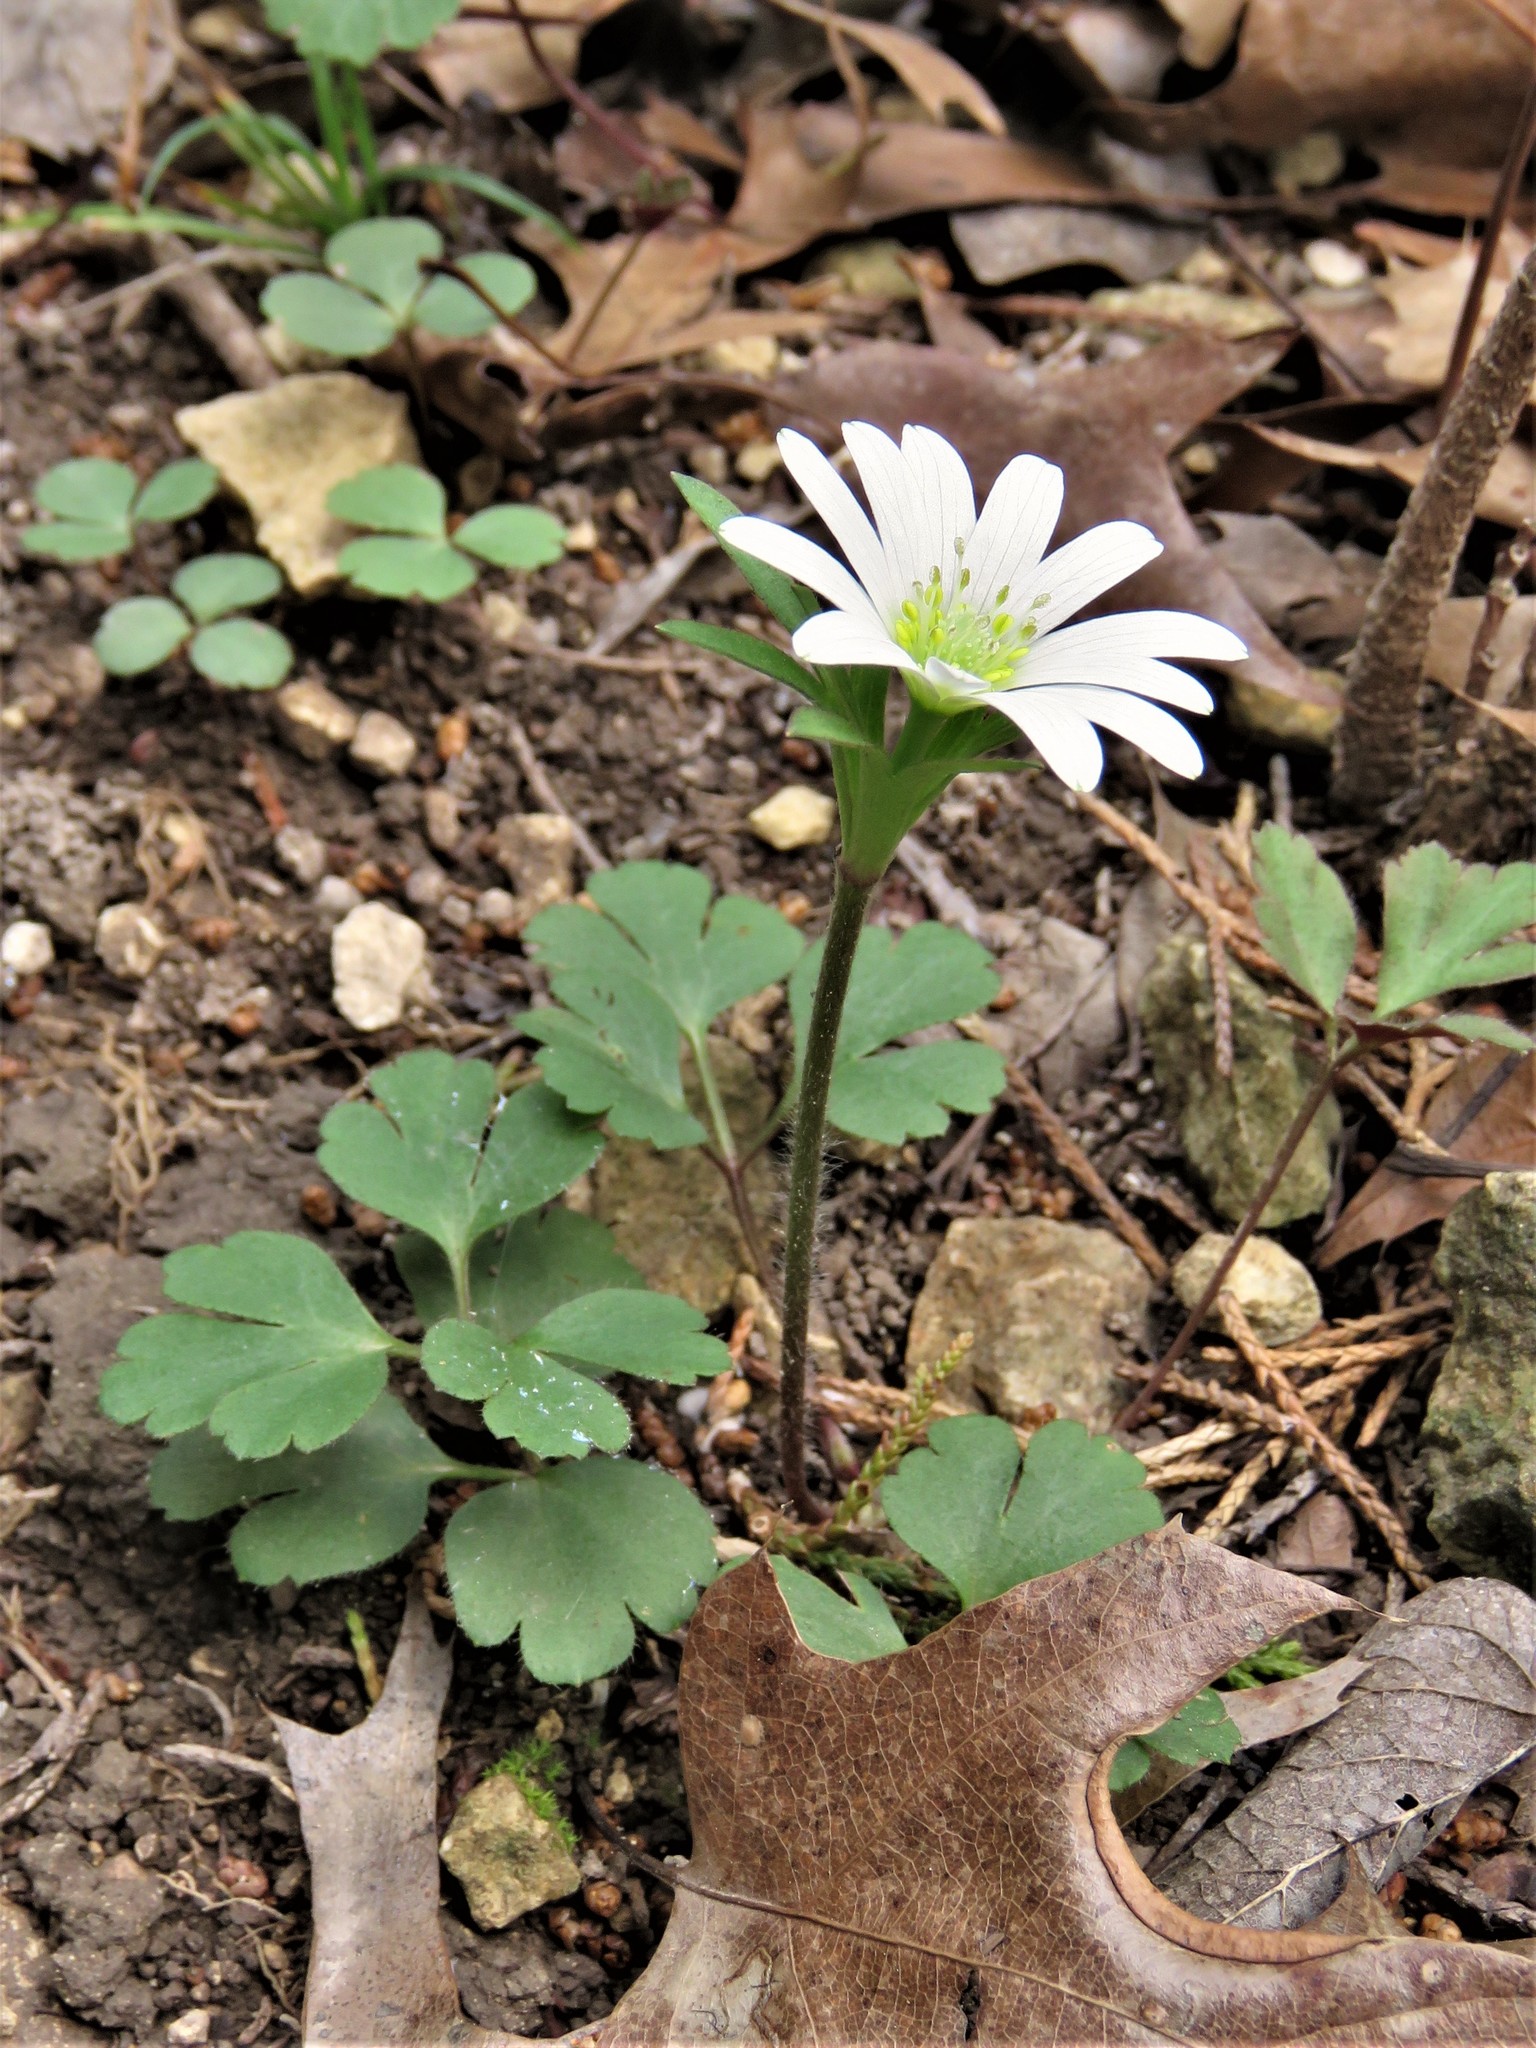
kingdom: Plantae
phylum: Tracheophyta
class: Magnoliopsida
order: Ranunculales
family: Ranunculaceae
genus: Anemone
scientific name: Anemone berlandieri
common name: Ten-petal anemone
